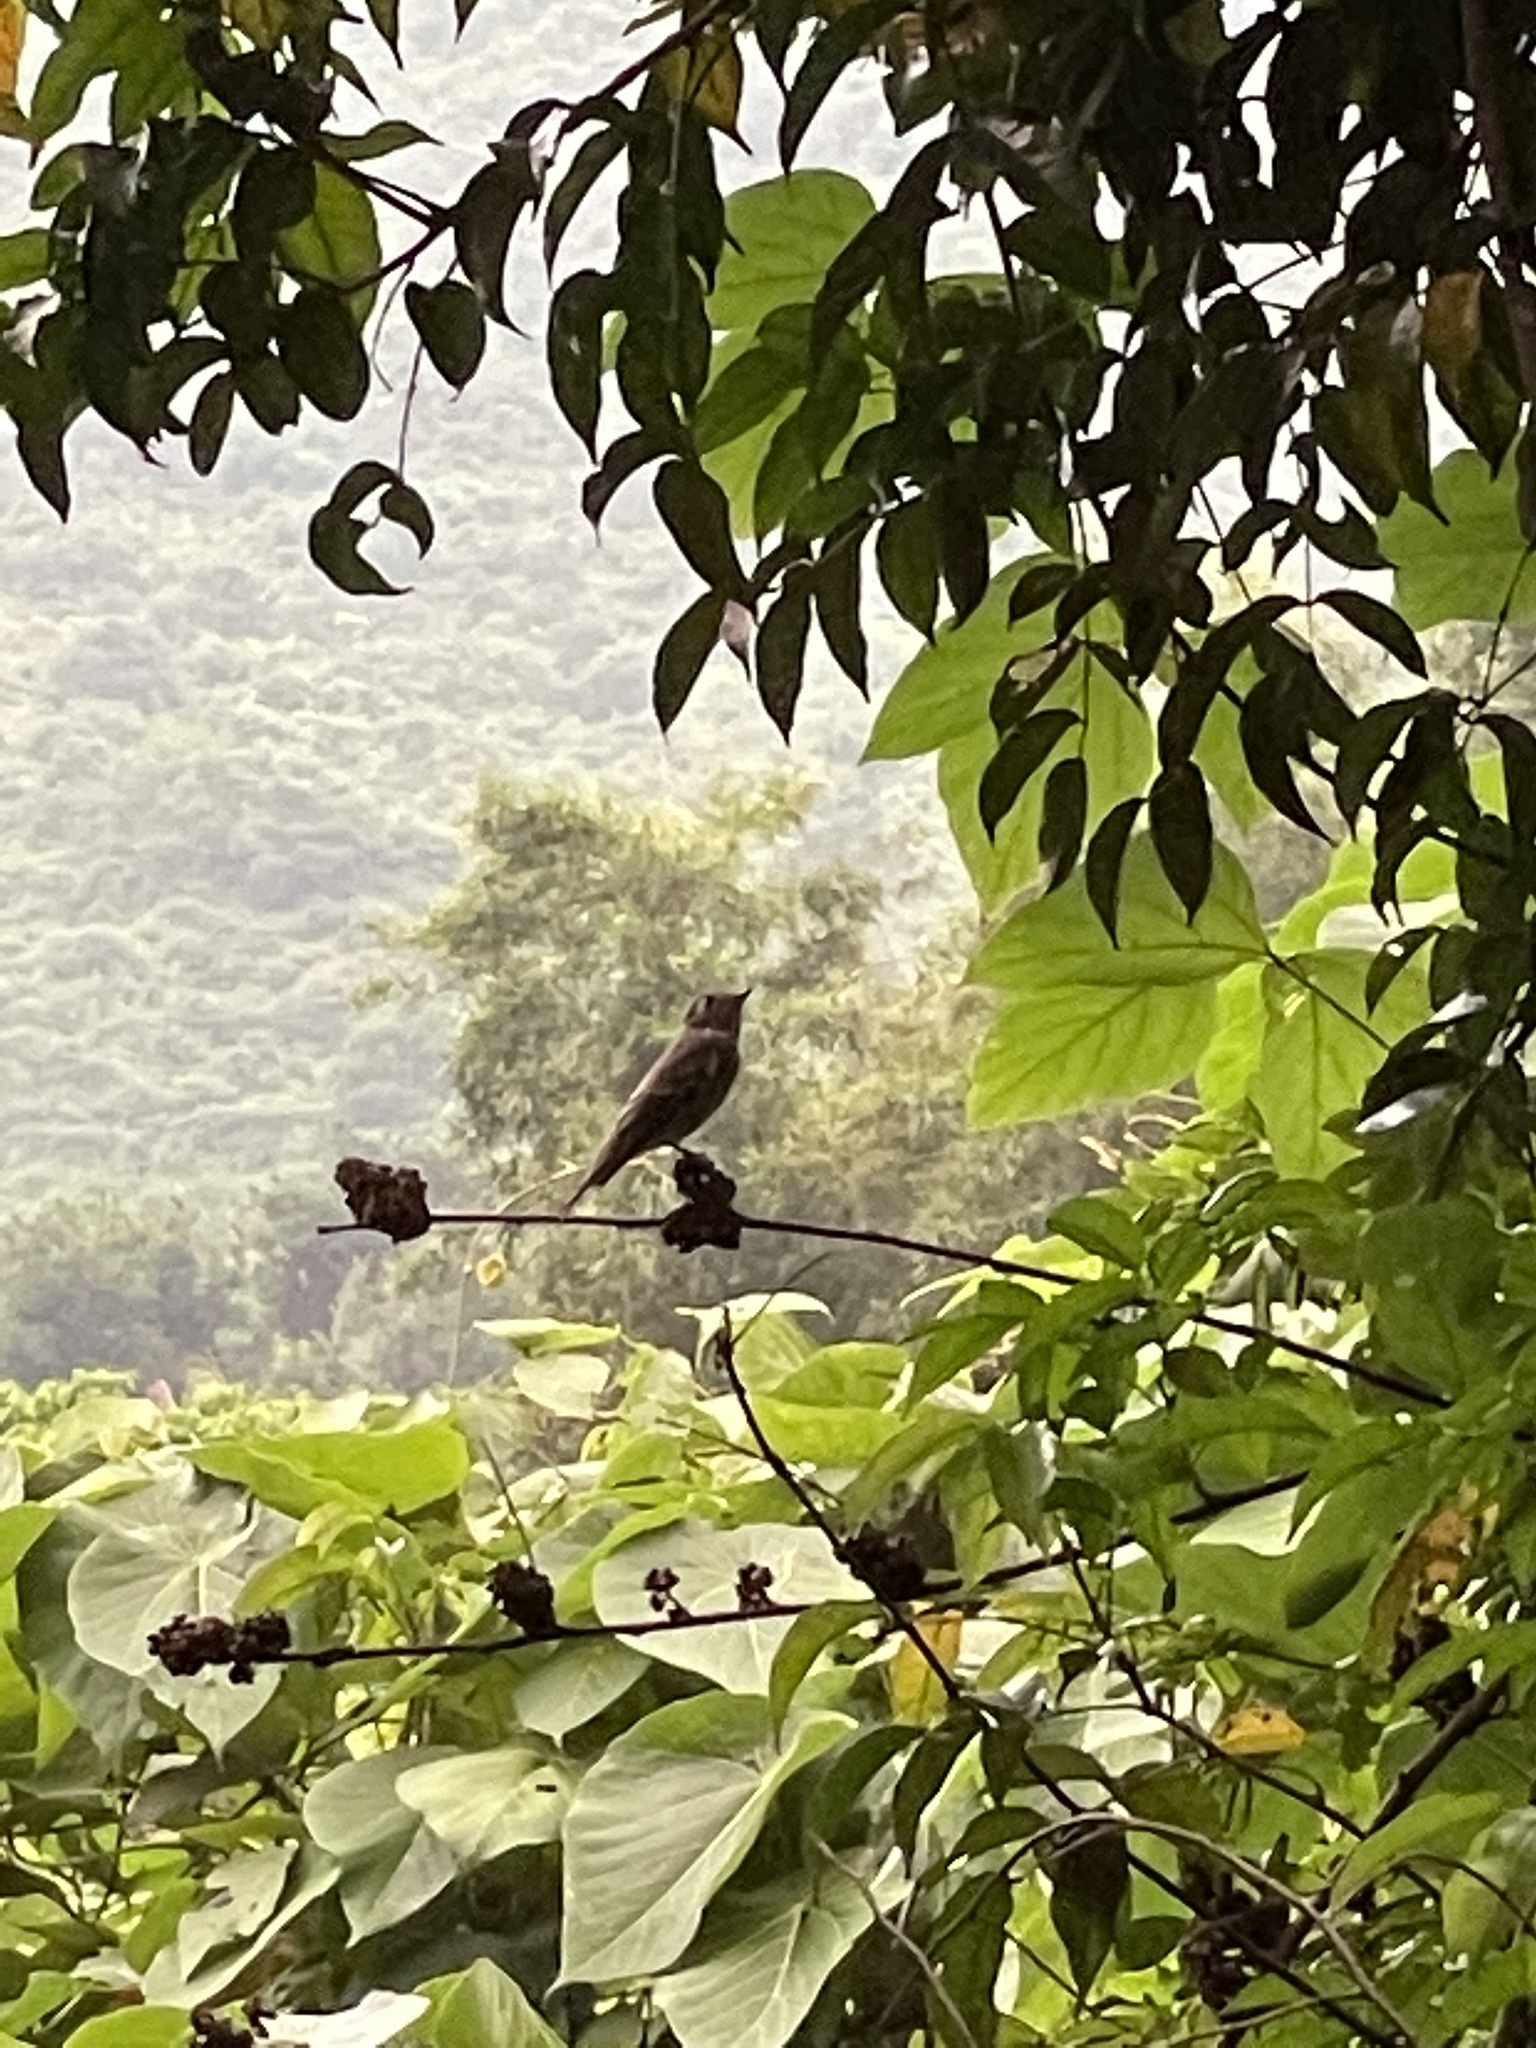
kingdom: Animalia
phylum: Chordata
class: Aves
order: Passeriformes
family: Muscicapidae
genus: Muscicapa
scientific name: Muscicapa sibirica
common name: Dark-sided flycatcher
